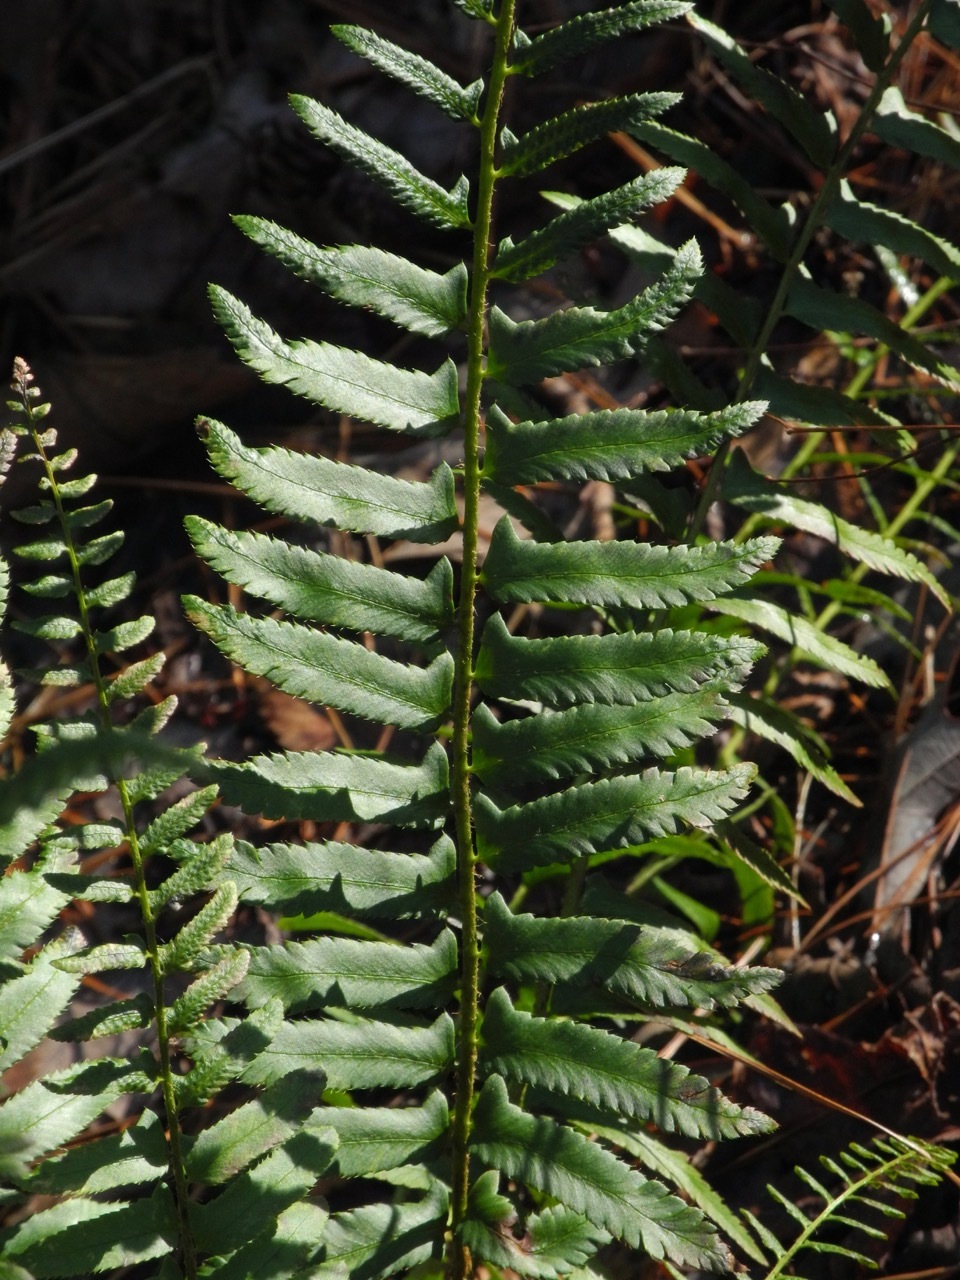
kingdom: Plantae
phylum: Tracheophyta
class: Polypodiopsida
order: Polypodiales
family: Dryopteridaceae
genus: Polystichum
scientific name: Polystichum acrostichoides
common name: Christmas fern
